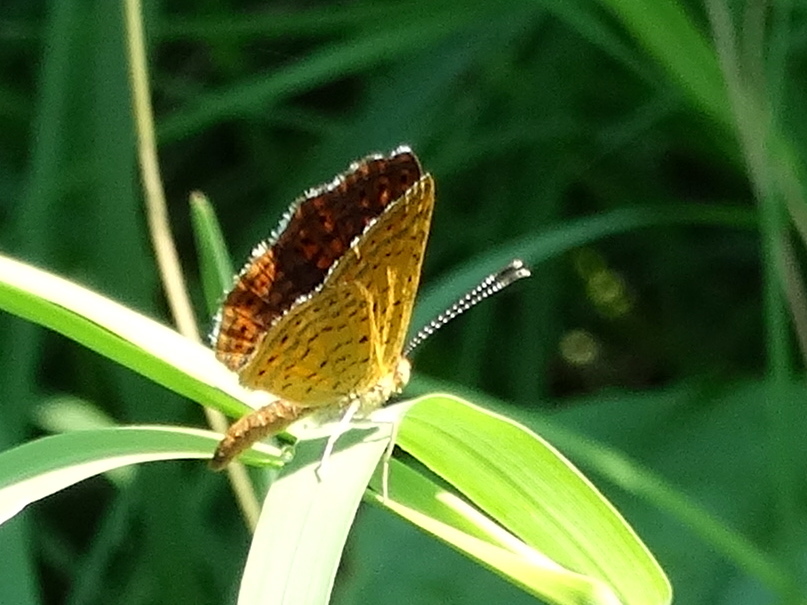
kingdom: Animalia
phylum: Arthropoda
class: Insecta
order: Lepidoptera
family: Riodinidae
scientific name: Riodinidae
